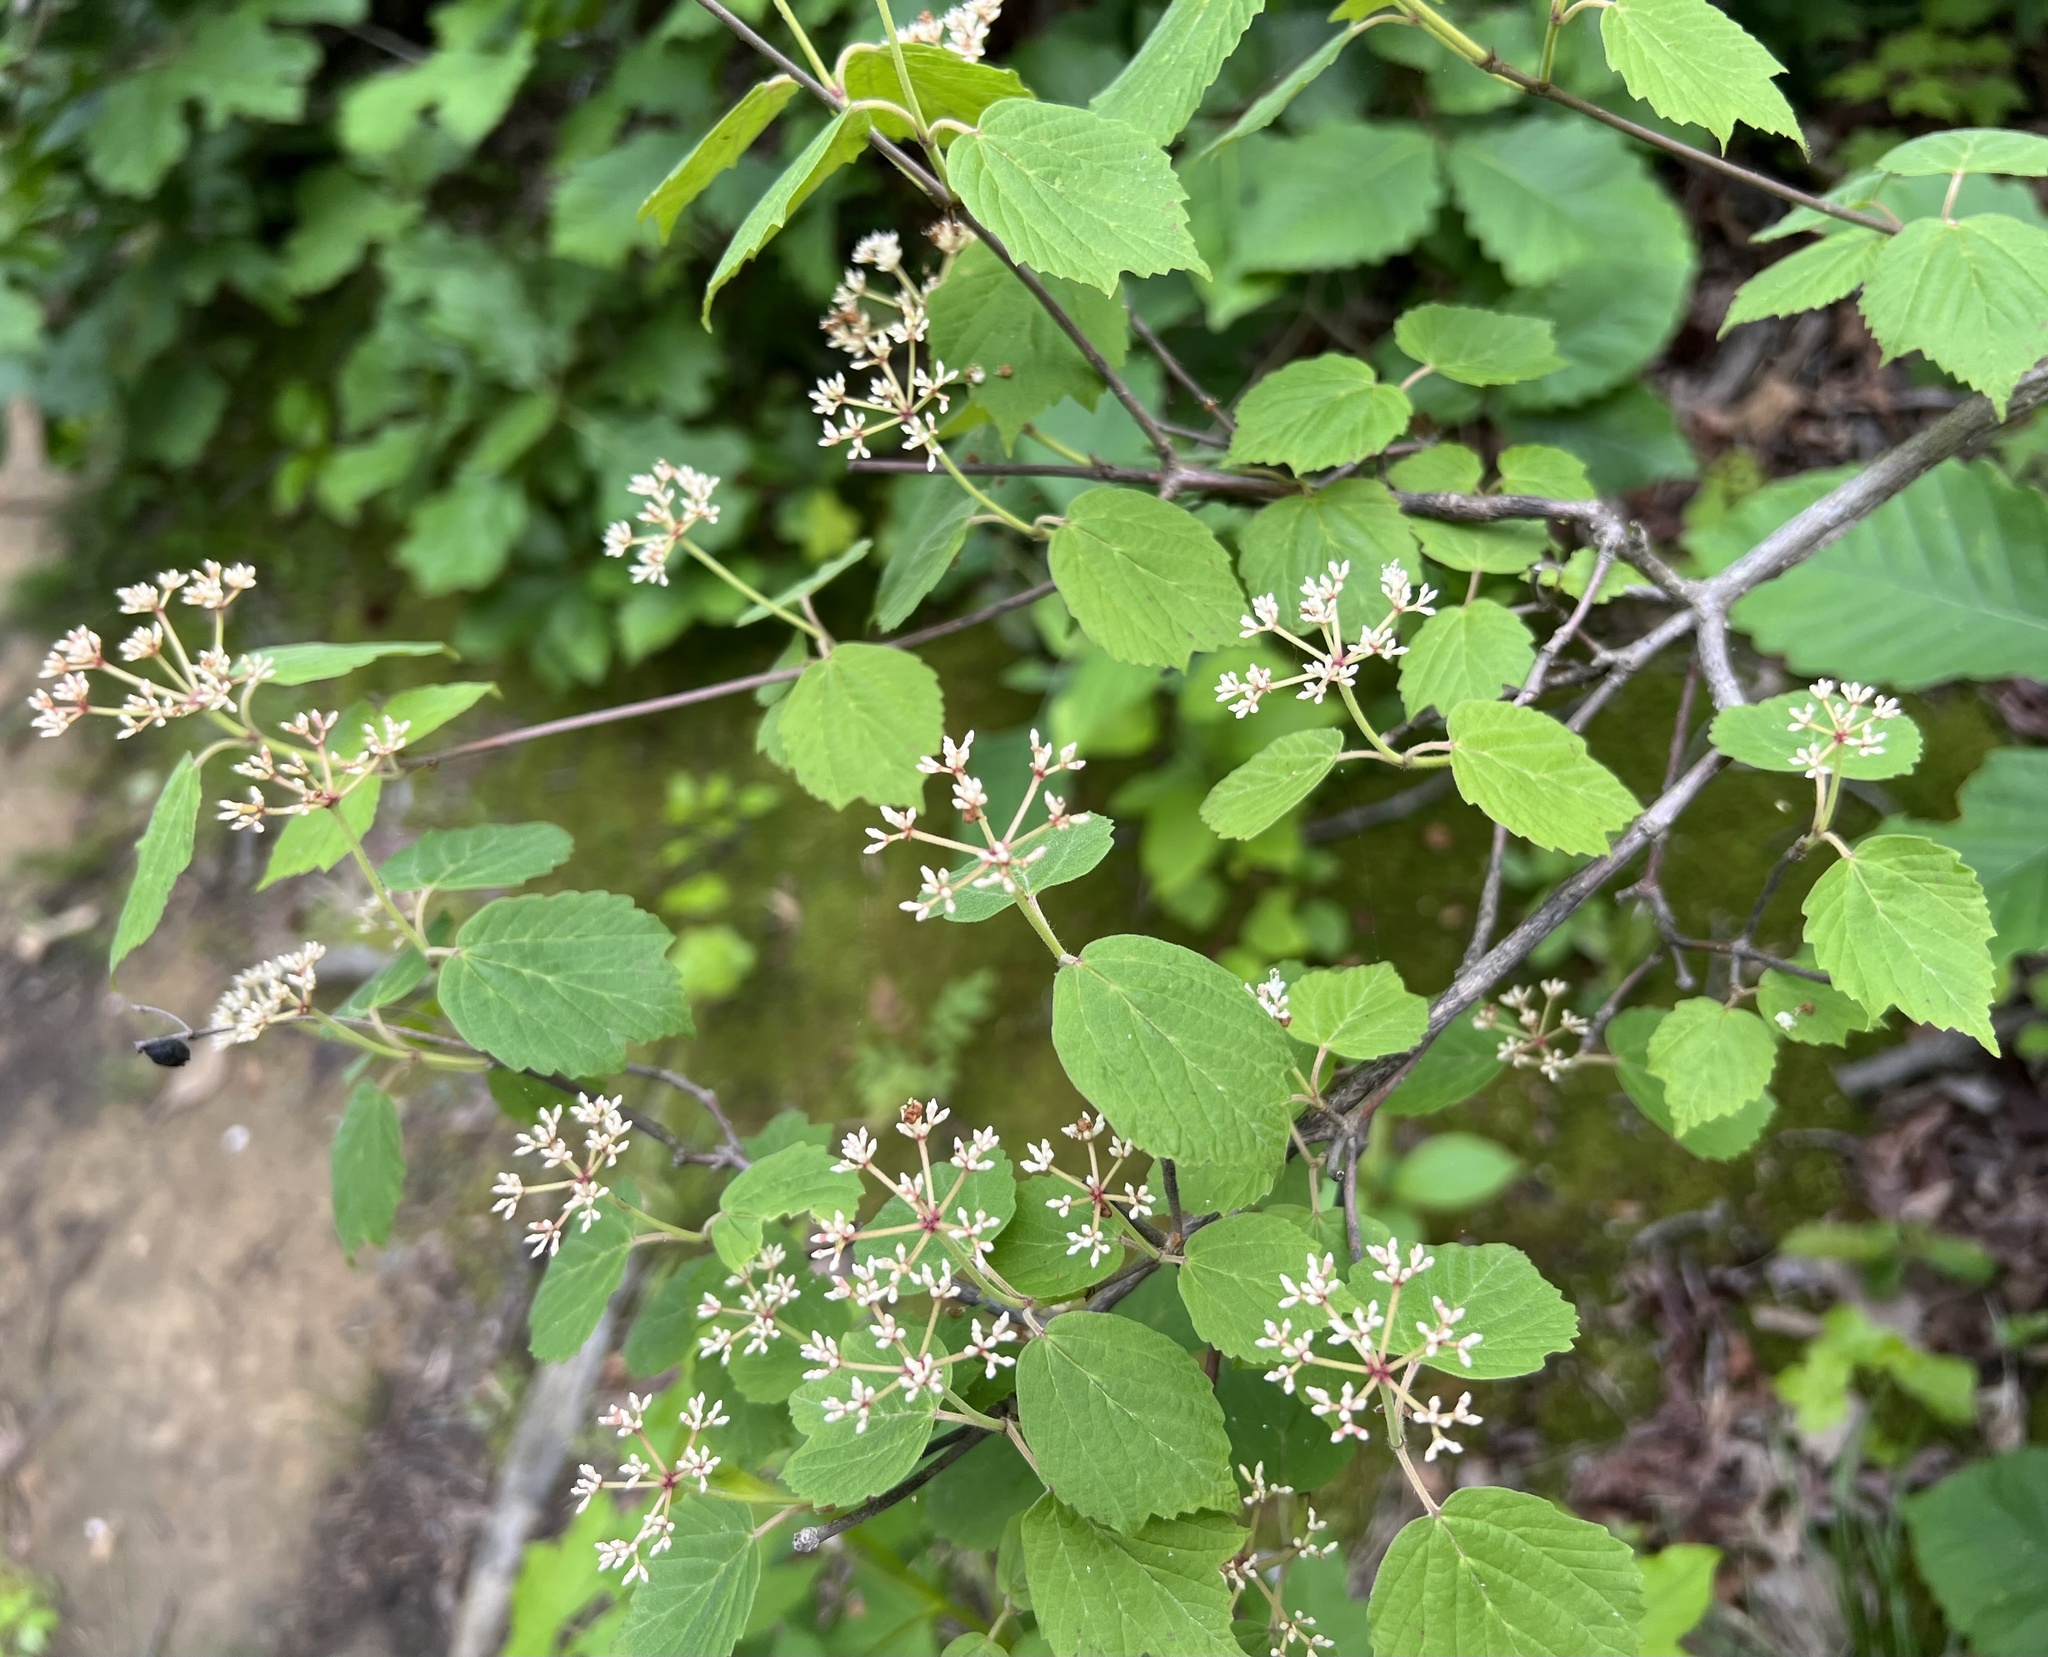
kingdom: Plantae
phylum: Tracheophyta
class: Magnoliopsida
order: Dipsacales
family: Viburnaceae
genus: Viburnum
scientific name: Viburnum acerifolium
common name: Dockmackie
